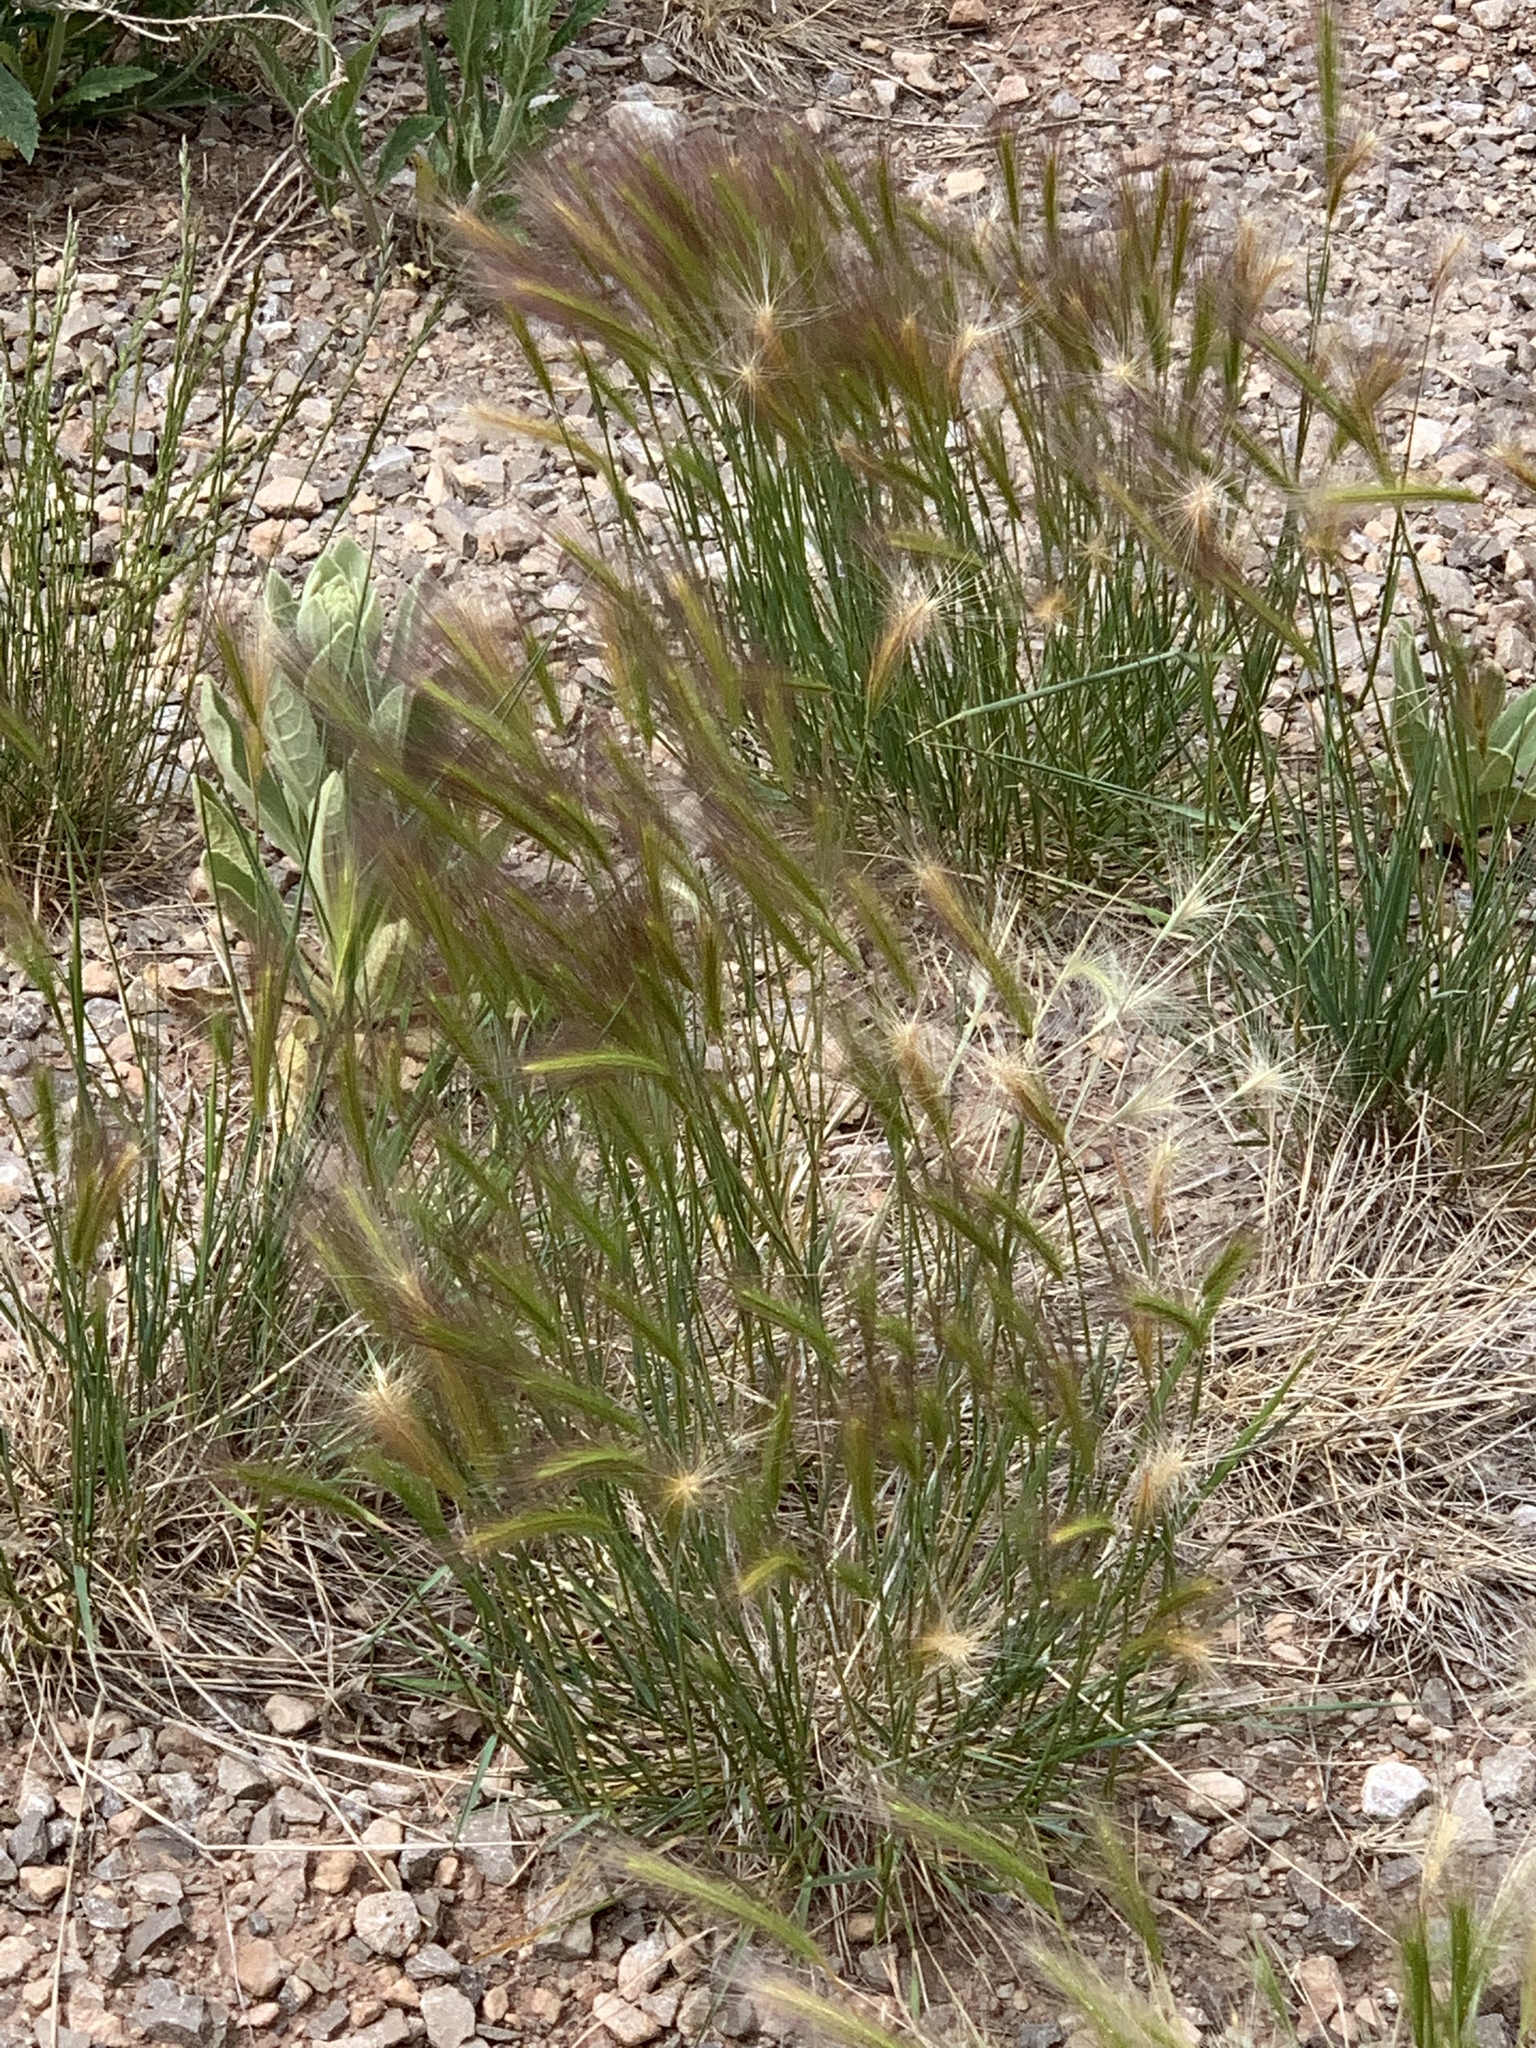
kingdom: Plantae
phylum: Tracheophyta
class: Liliopsida
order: Poales
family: Poaceae
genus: Hordeum
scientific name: Hordeum jubatum
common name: Foxtail barley
